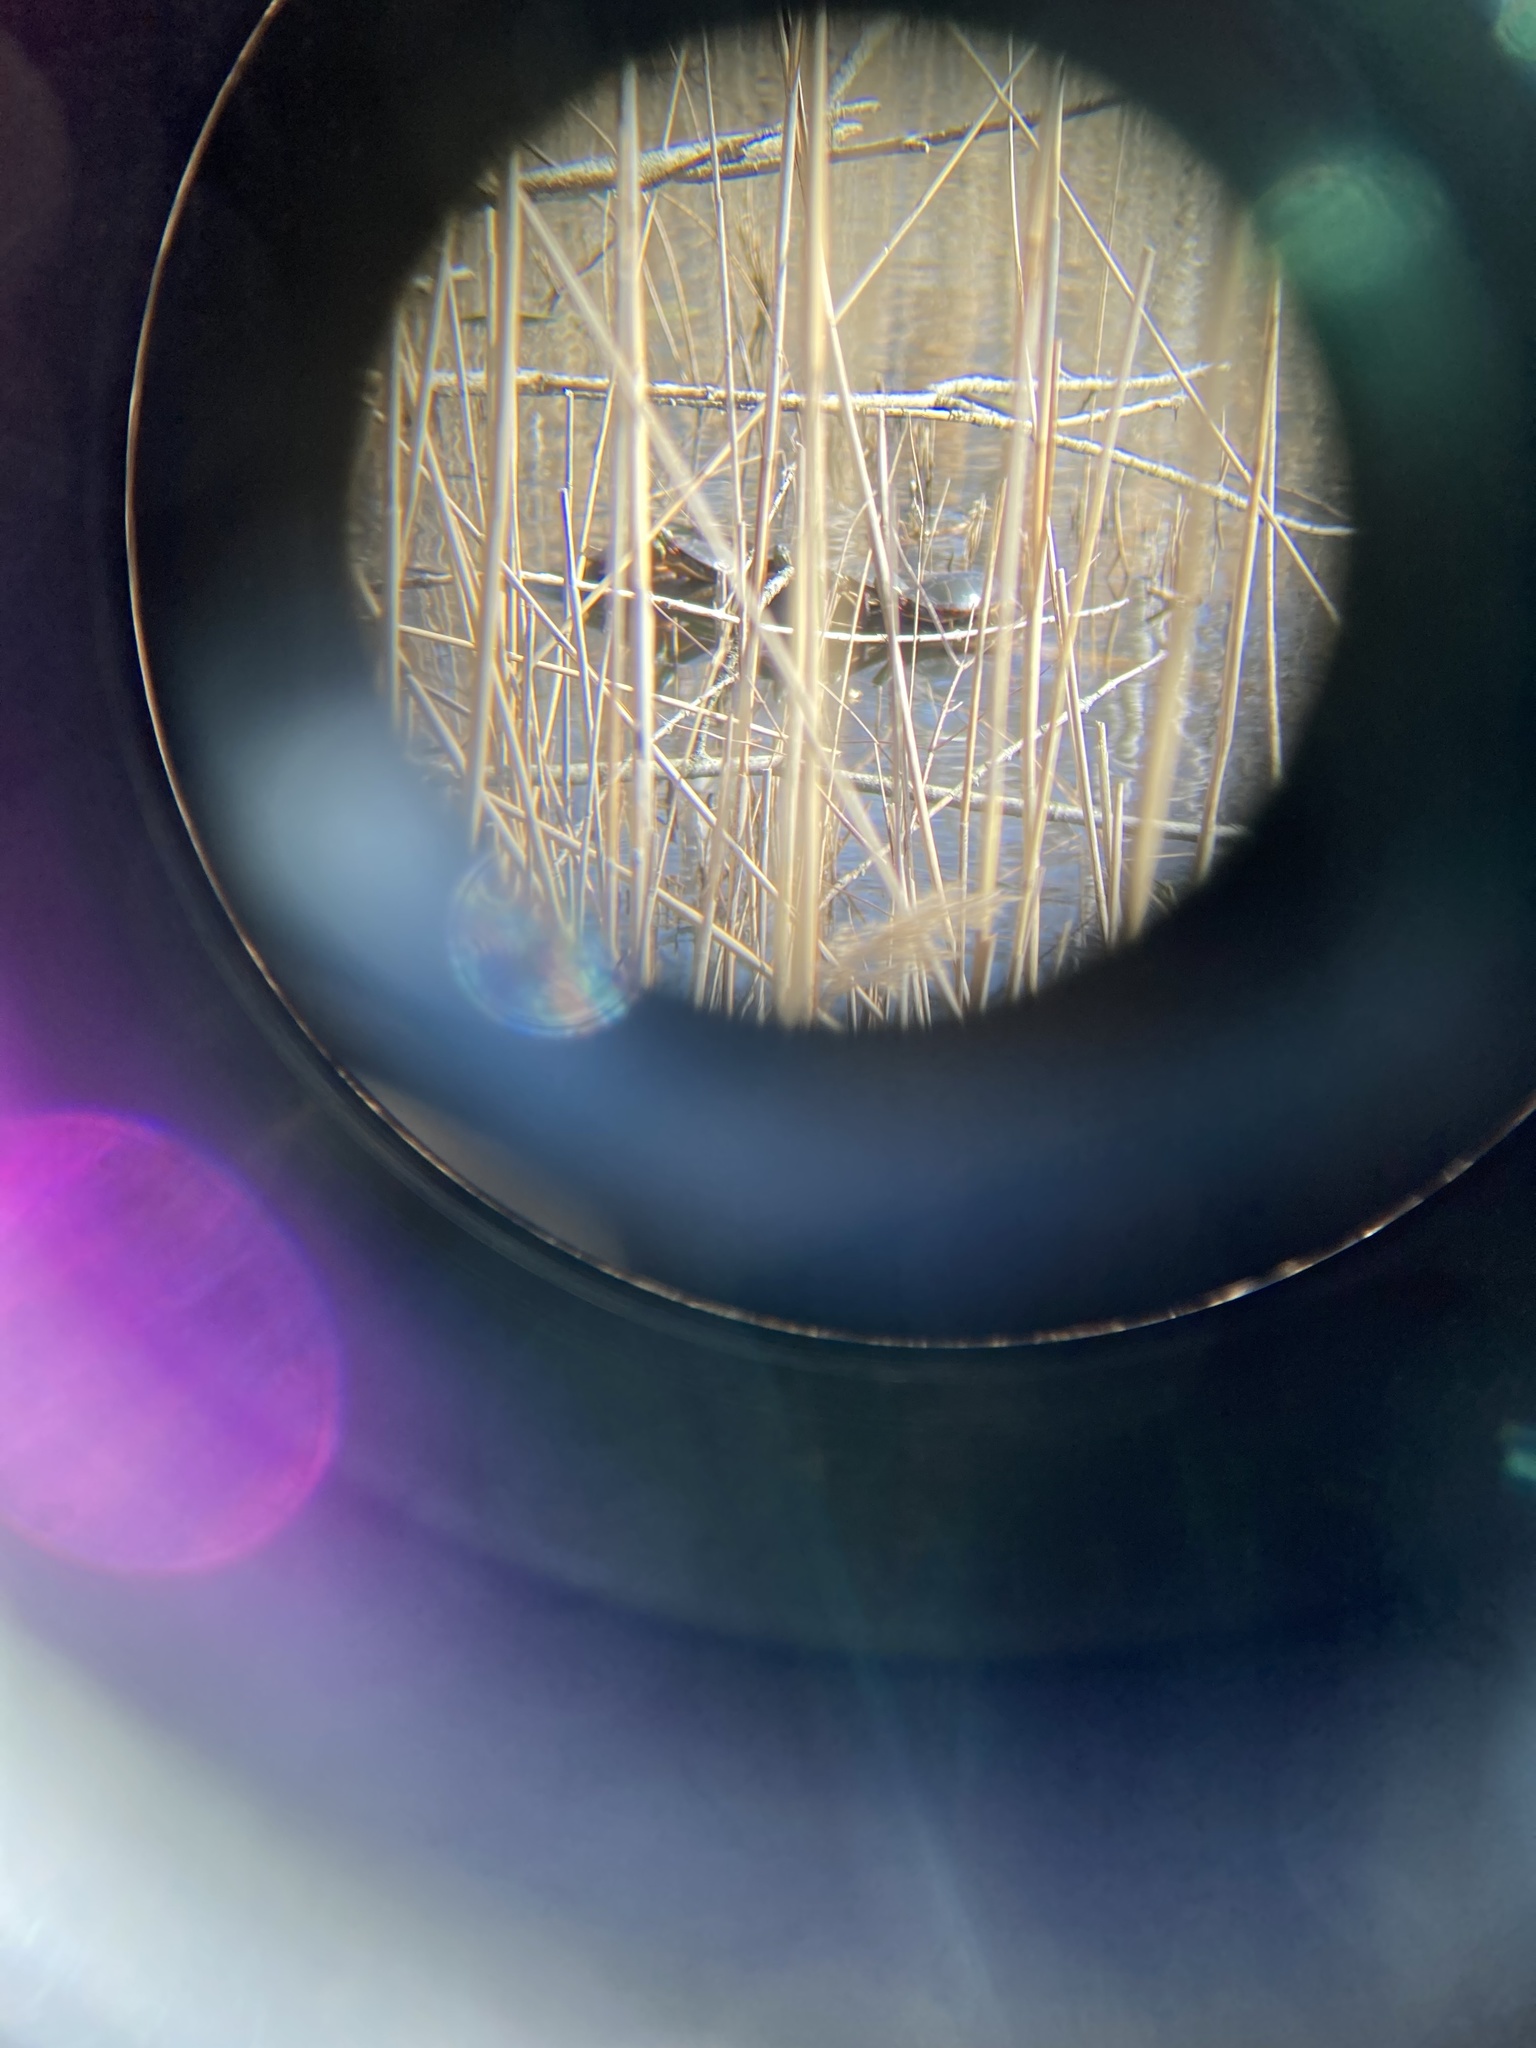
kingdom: Animalia
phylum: Chordata
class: Testudines
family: Emydidae
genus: Chrysemys
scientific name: Chrysemys picta
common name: Painted turtle
